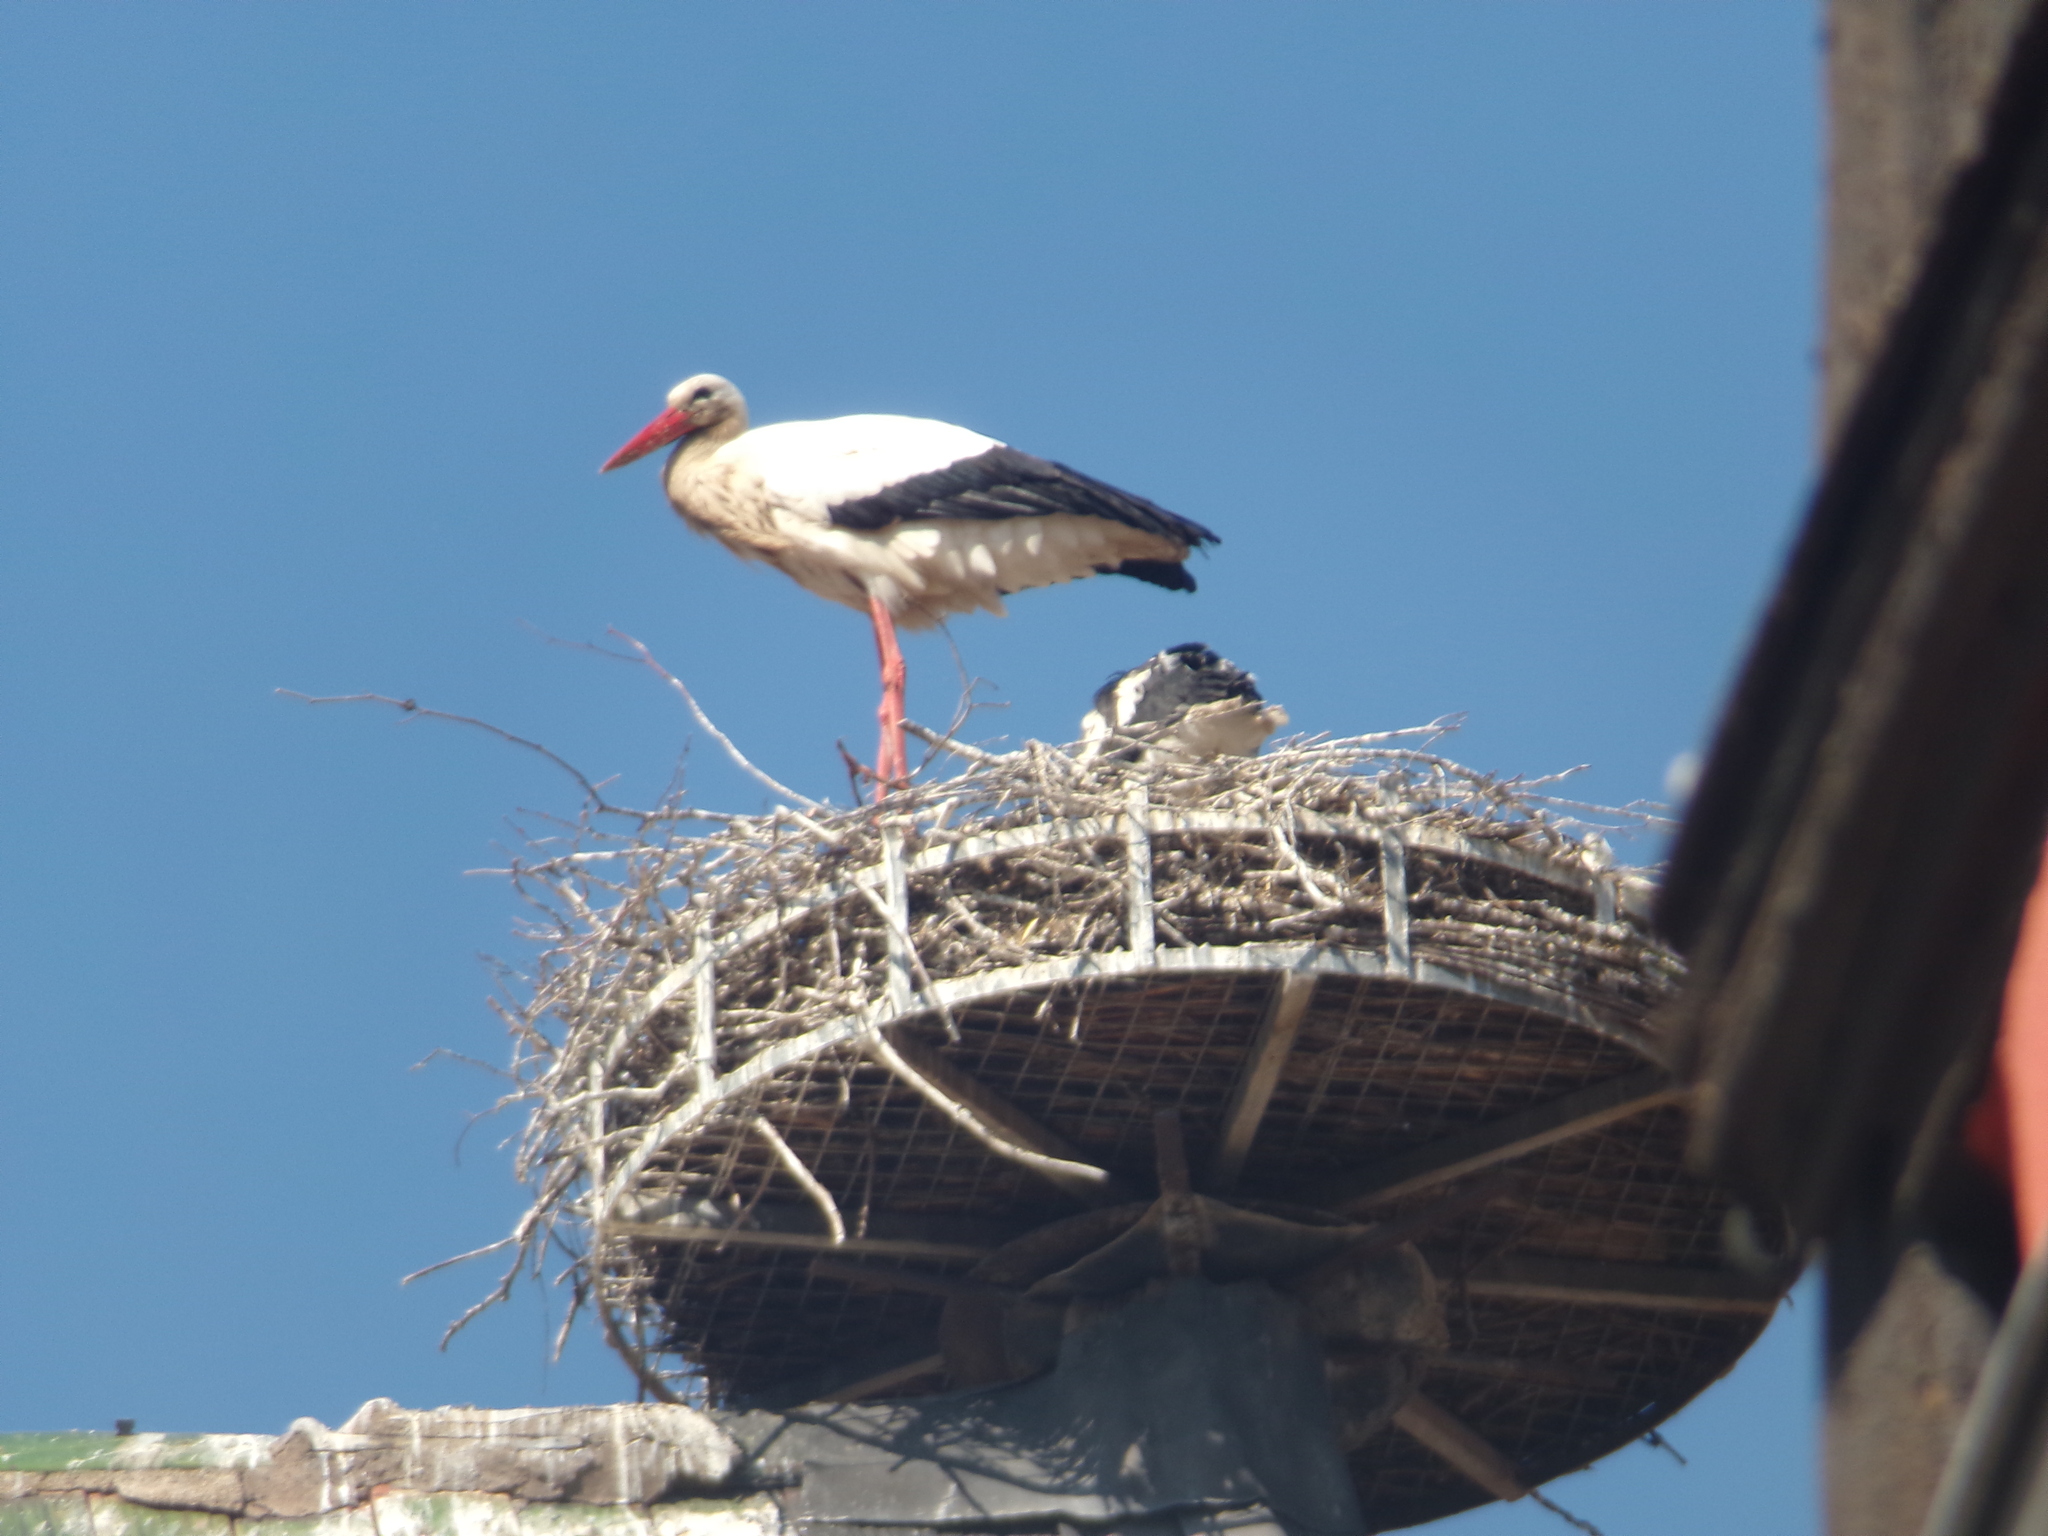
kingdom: Animalia
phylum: Chordata
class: Aves
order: Ciconiiformes
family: Ciconiidae
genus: Ciconia
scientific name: Ciconia ciconia
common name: White stork
